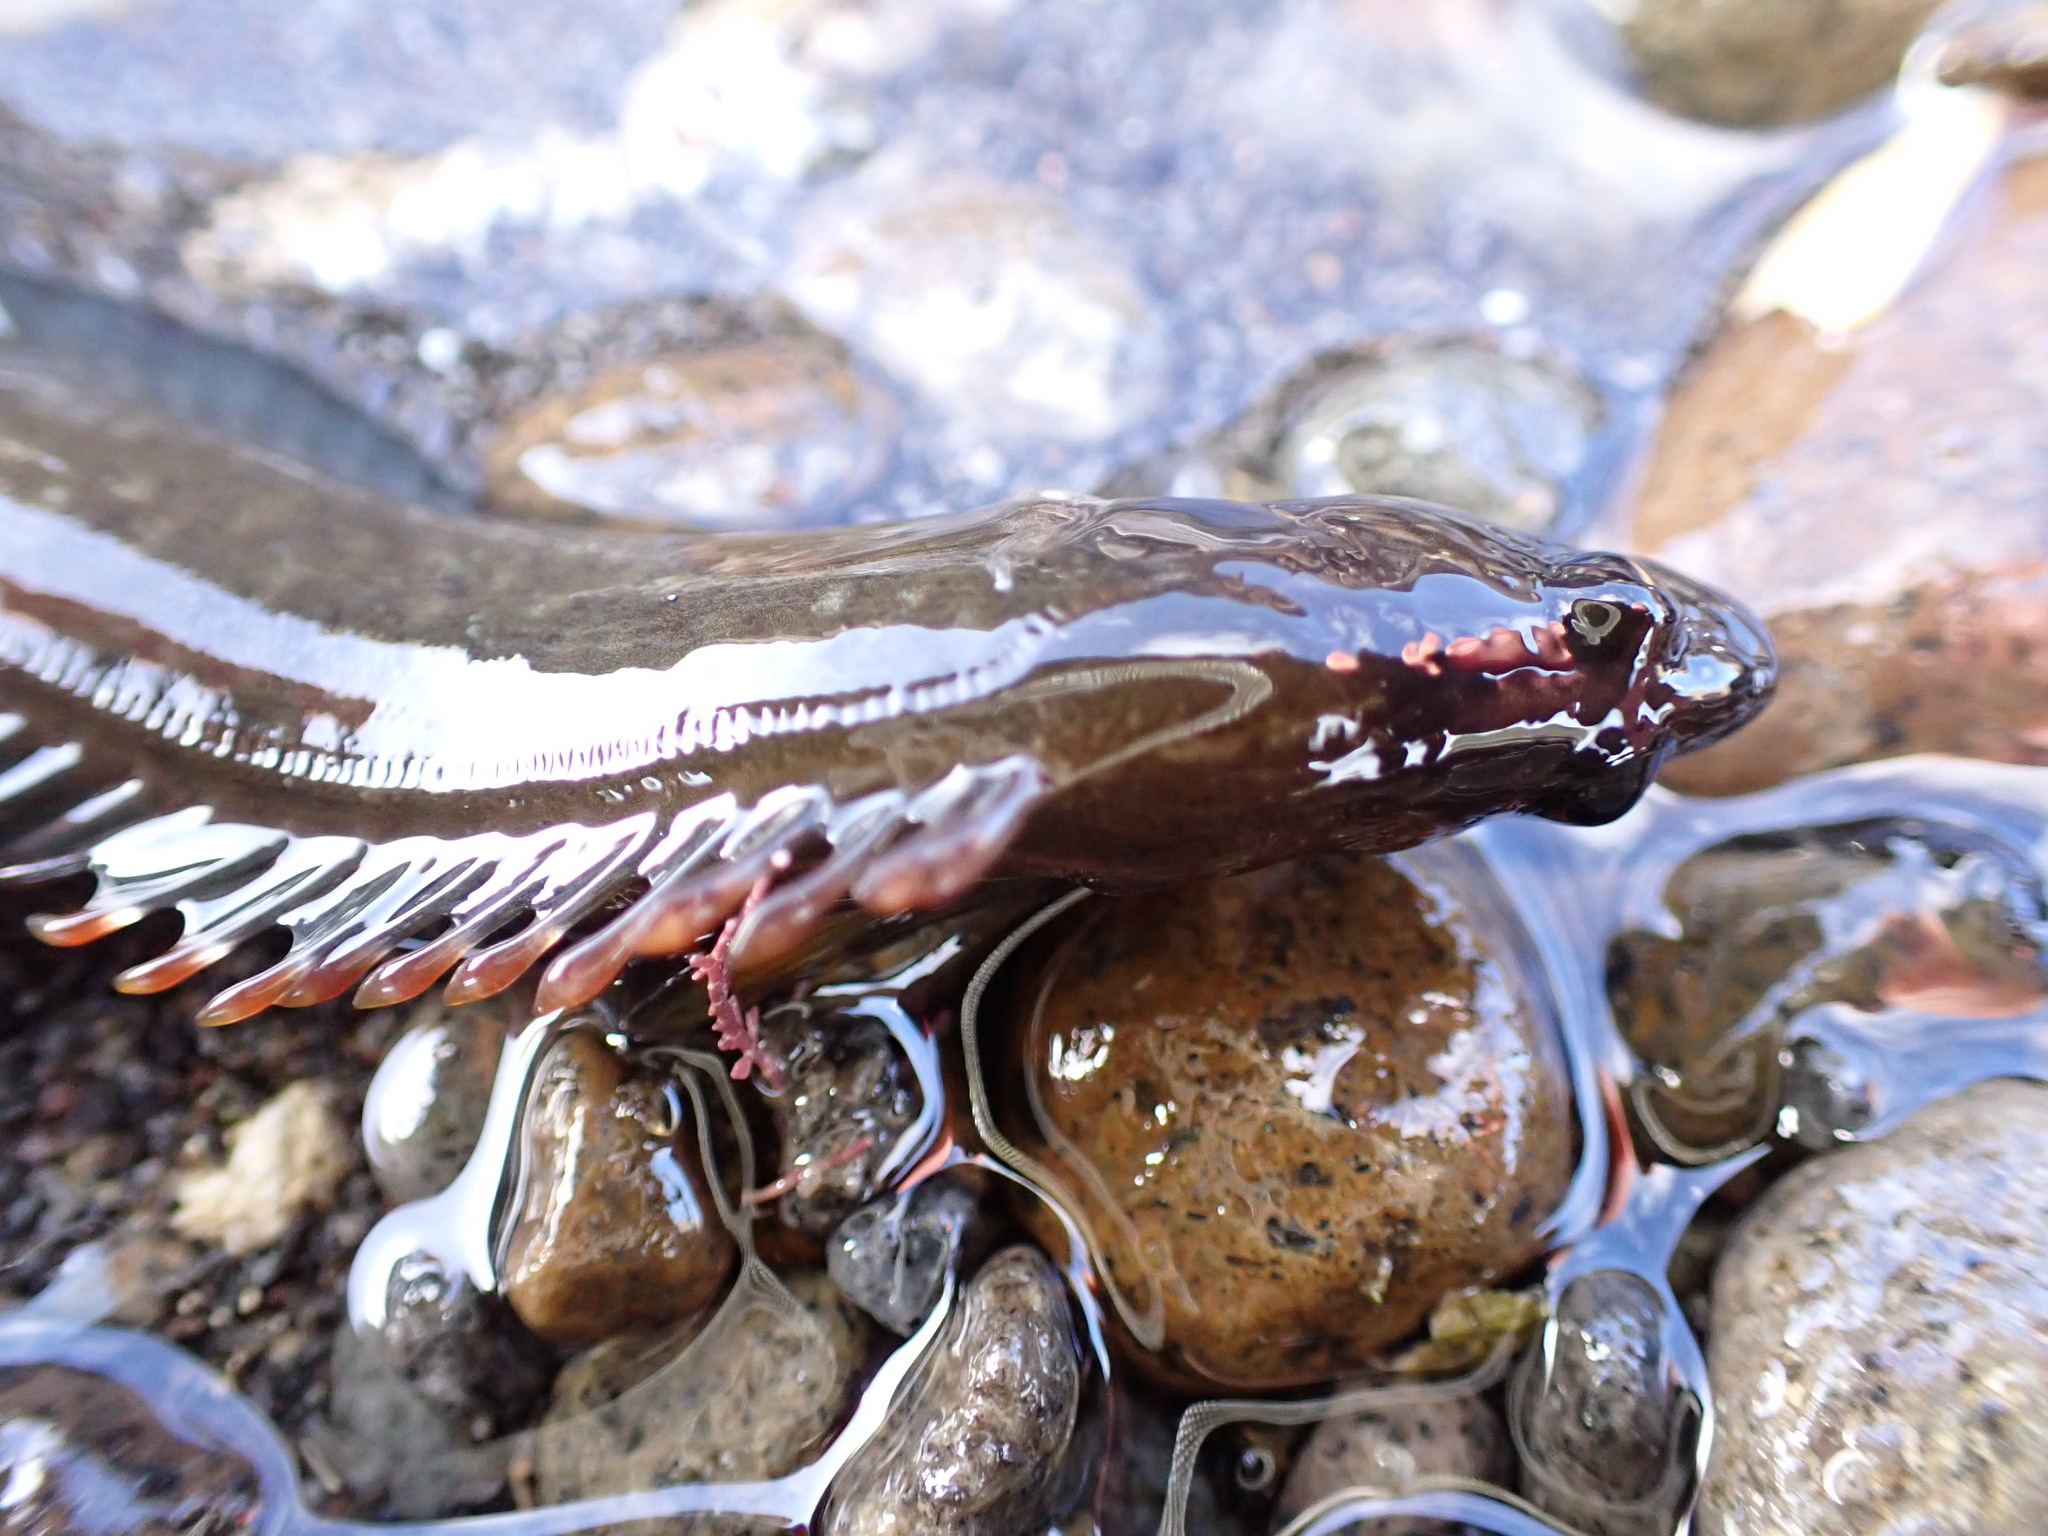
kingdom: Animalia
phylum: Chordata
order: Perciformes
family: Plesiopidae
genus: Acanthoclinus
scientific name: Acanthoclinus fuscus
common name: Olive rockfish
